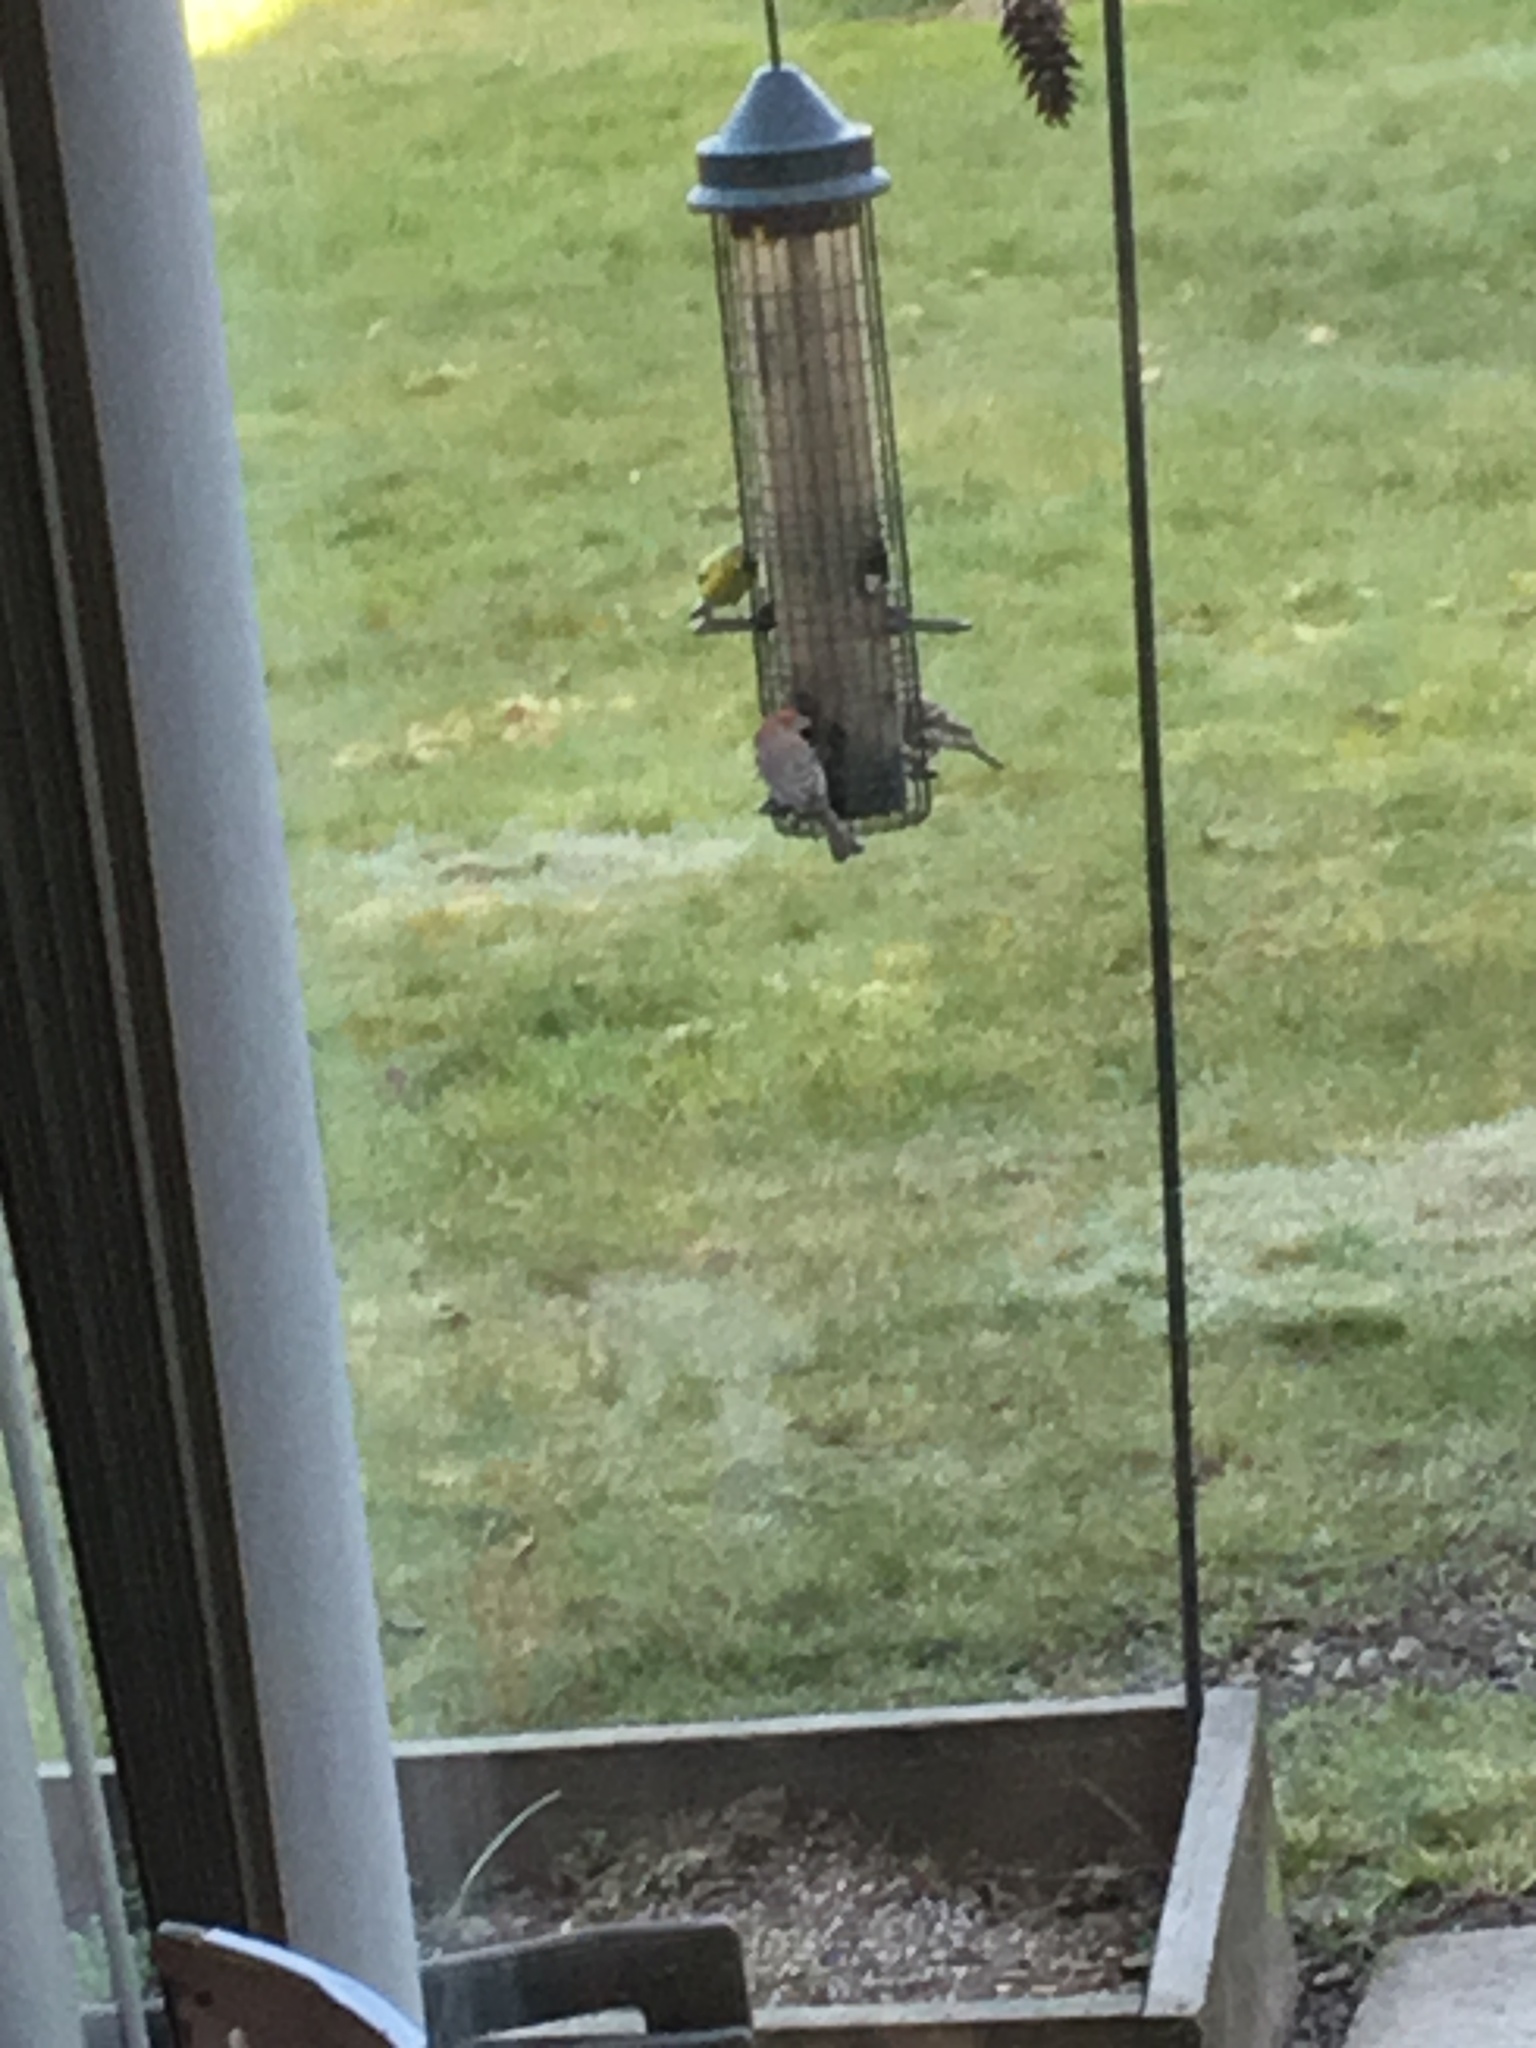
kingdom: Animalia
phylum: Chordata
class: Aves
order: Passeriformes
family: Fringillidae
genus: Haemorhous
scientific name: Haemorhous mexicanus
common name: House finch
